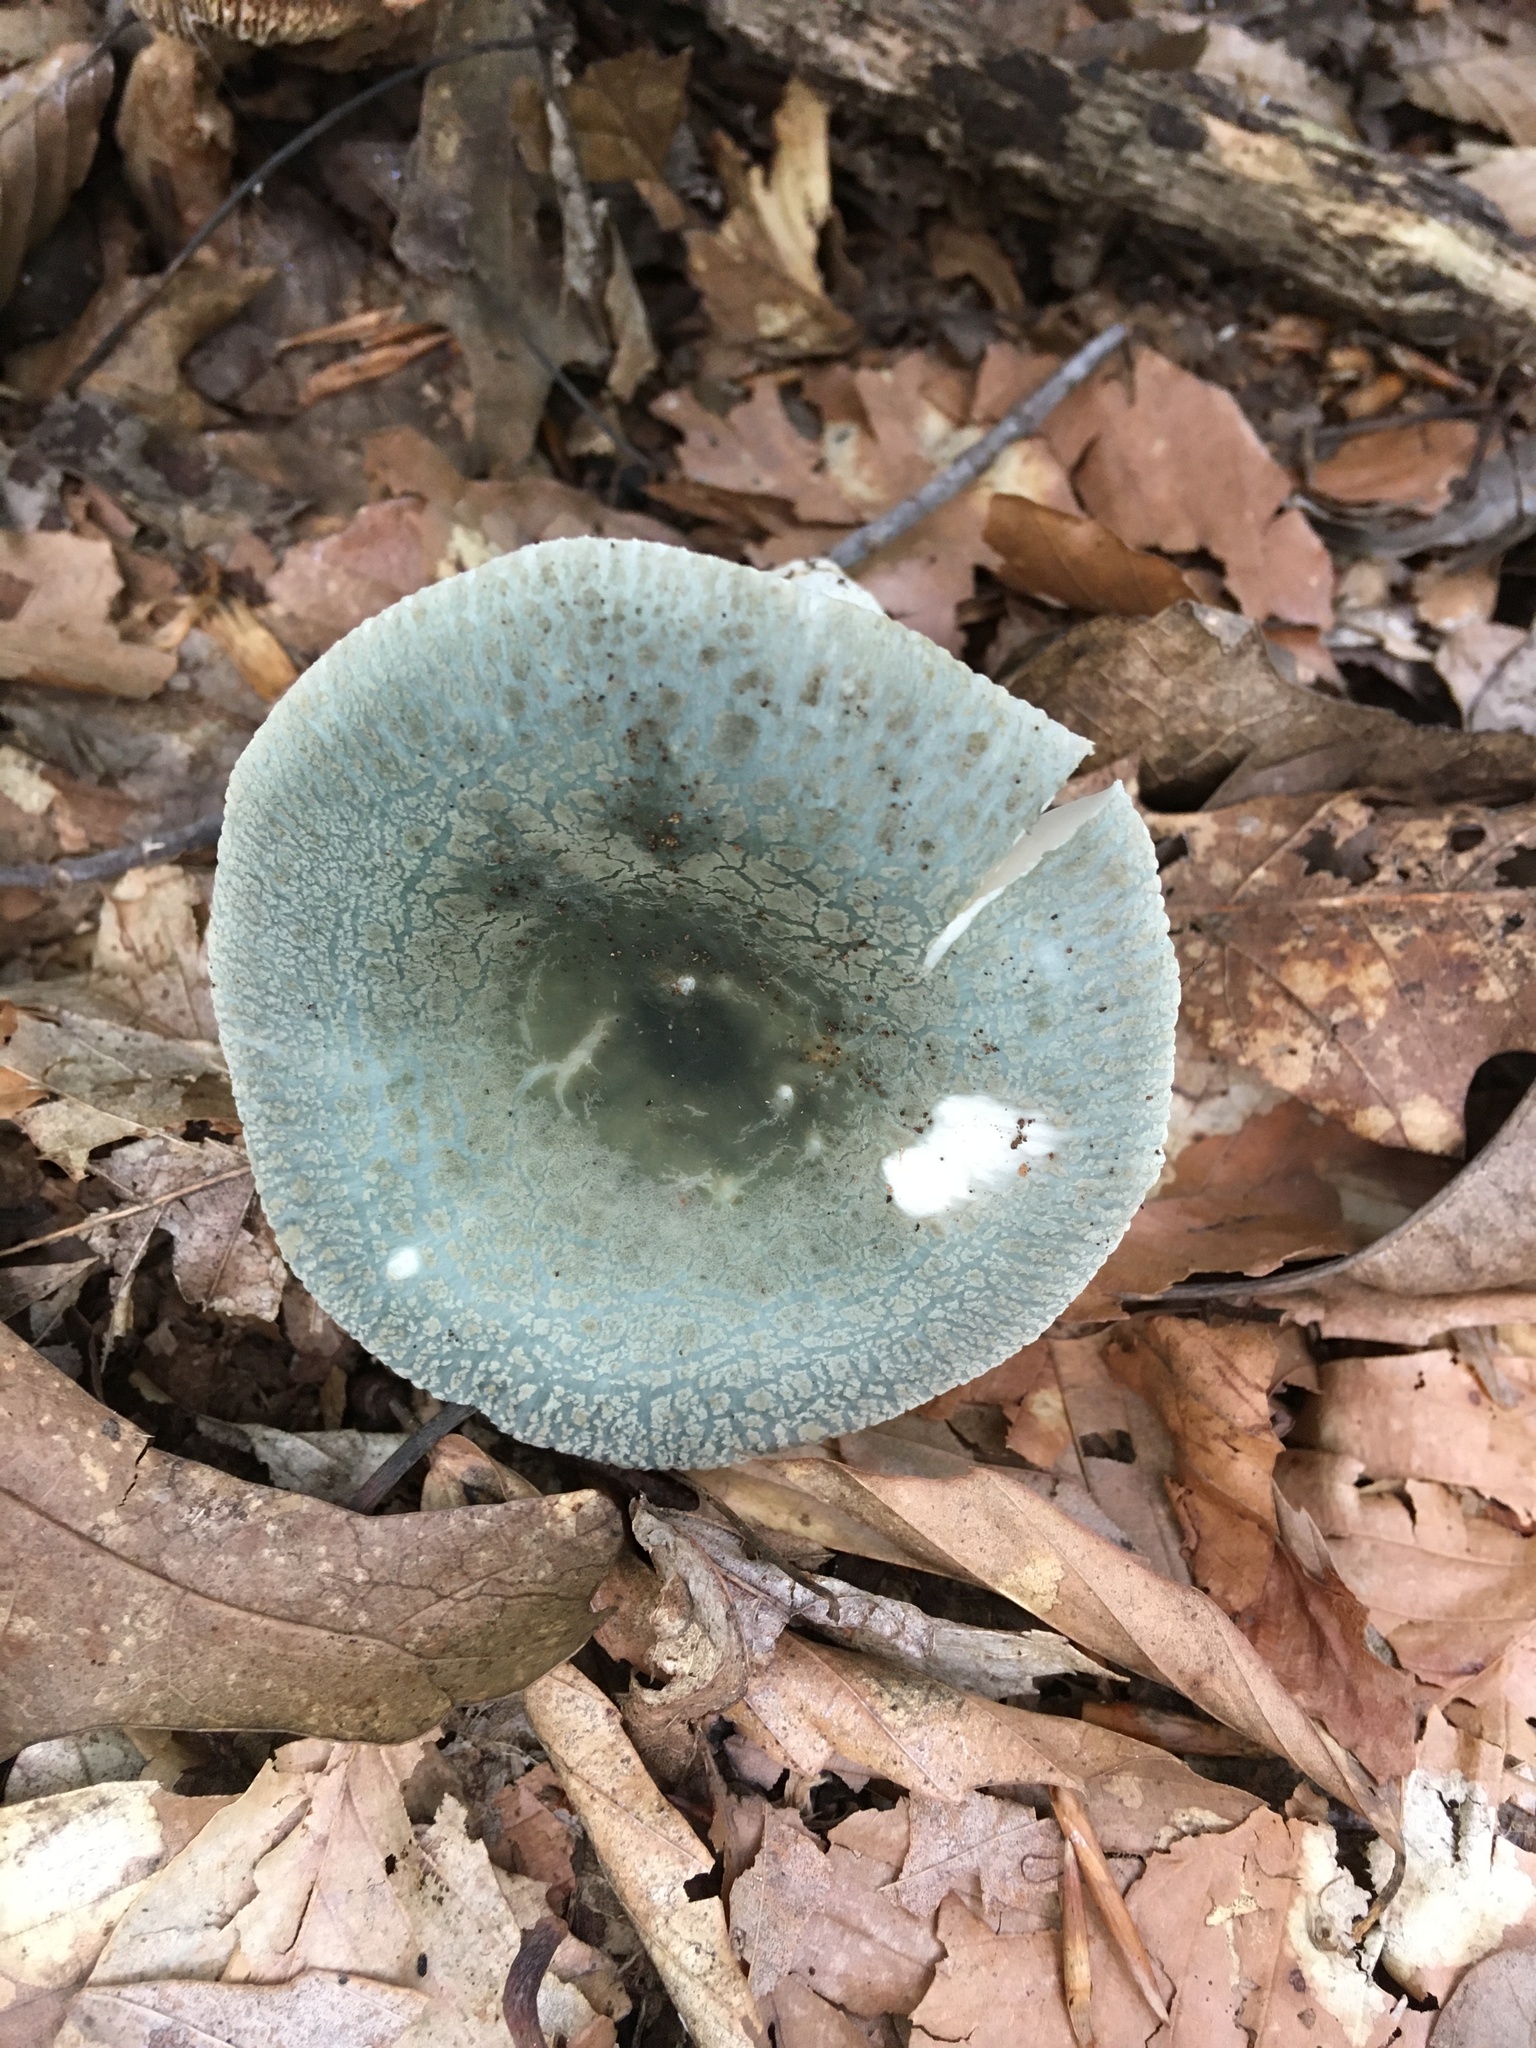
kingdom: Fungi
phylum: Basidiomycota
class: Agaricomycetes
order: Russulales
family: Russulaceae
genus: Russula
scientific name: Russula parvovirescens
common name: Blue-green cracking russula
